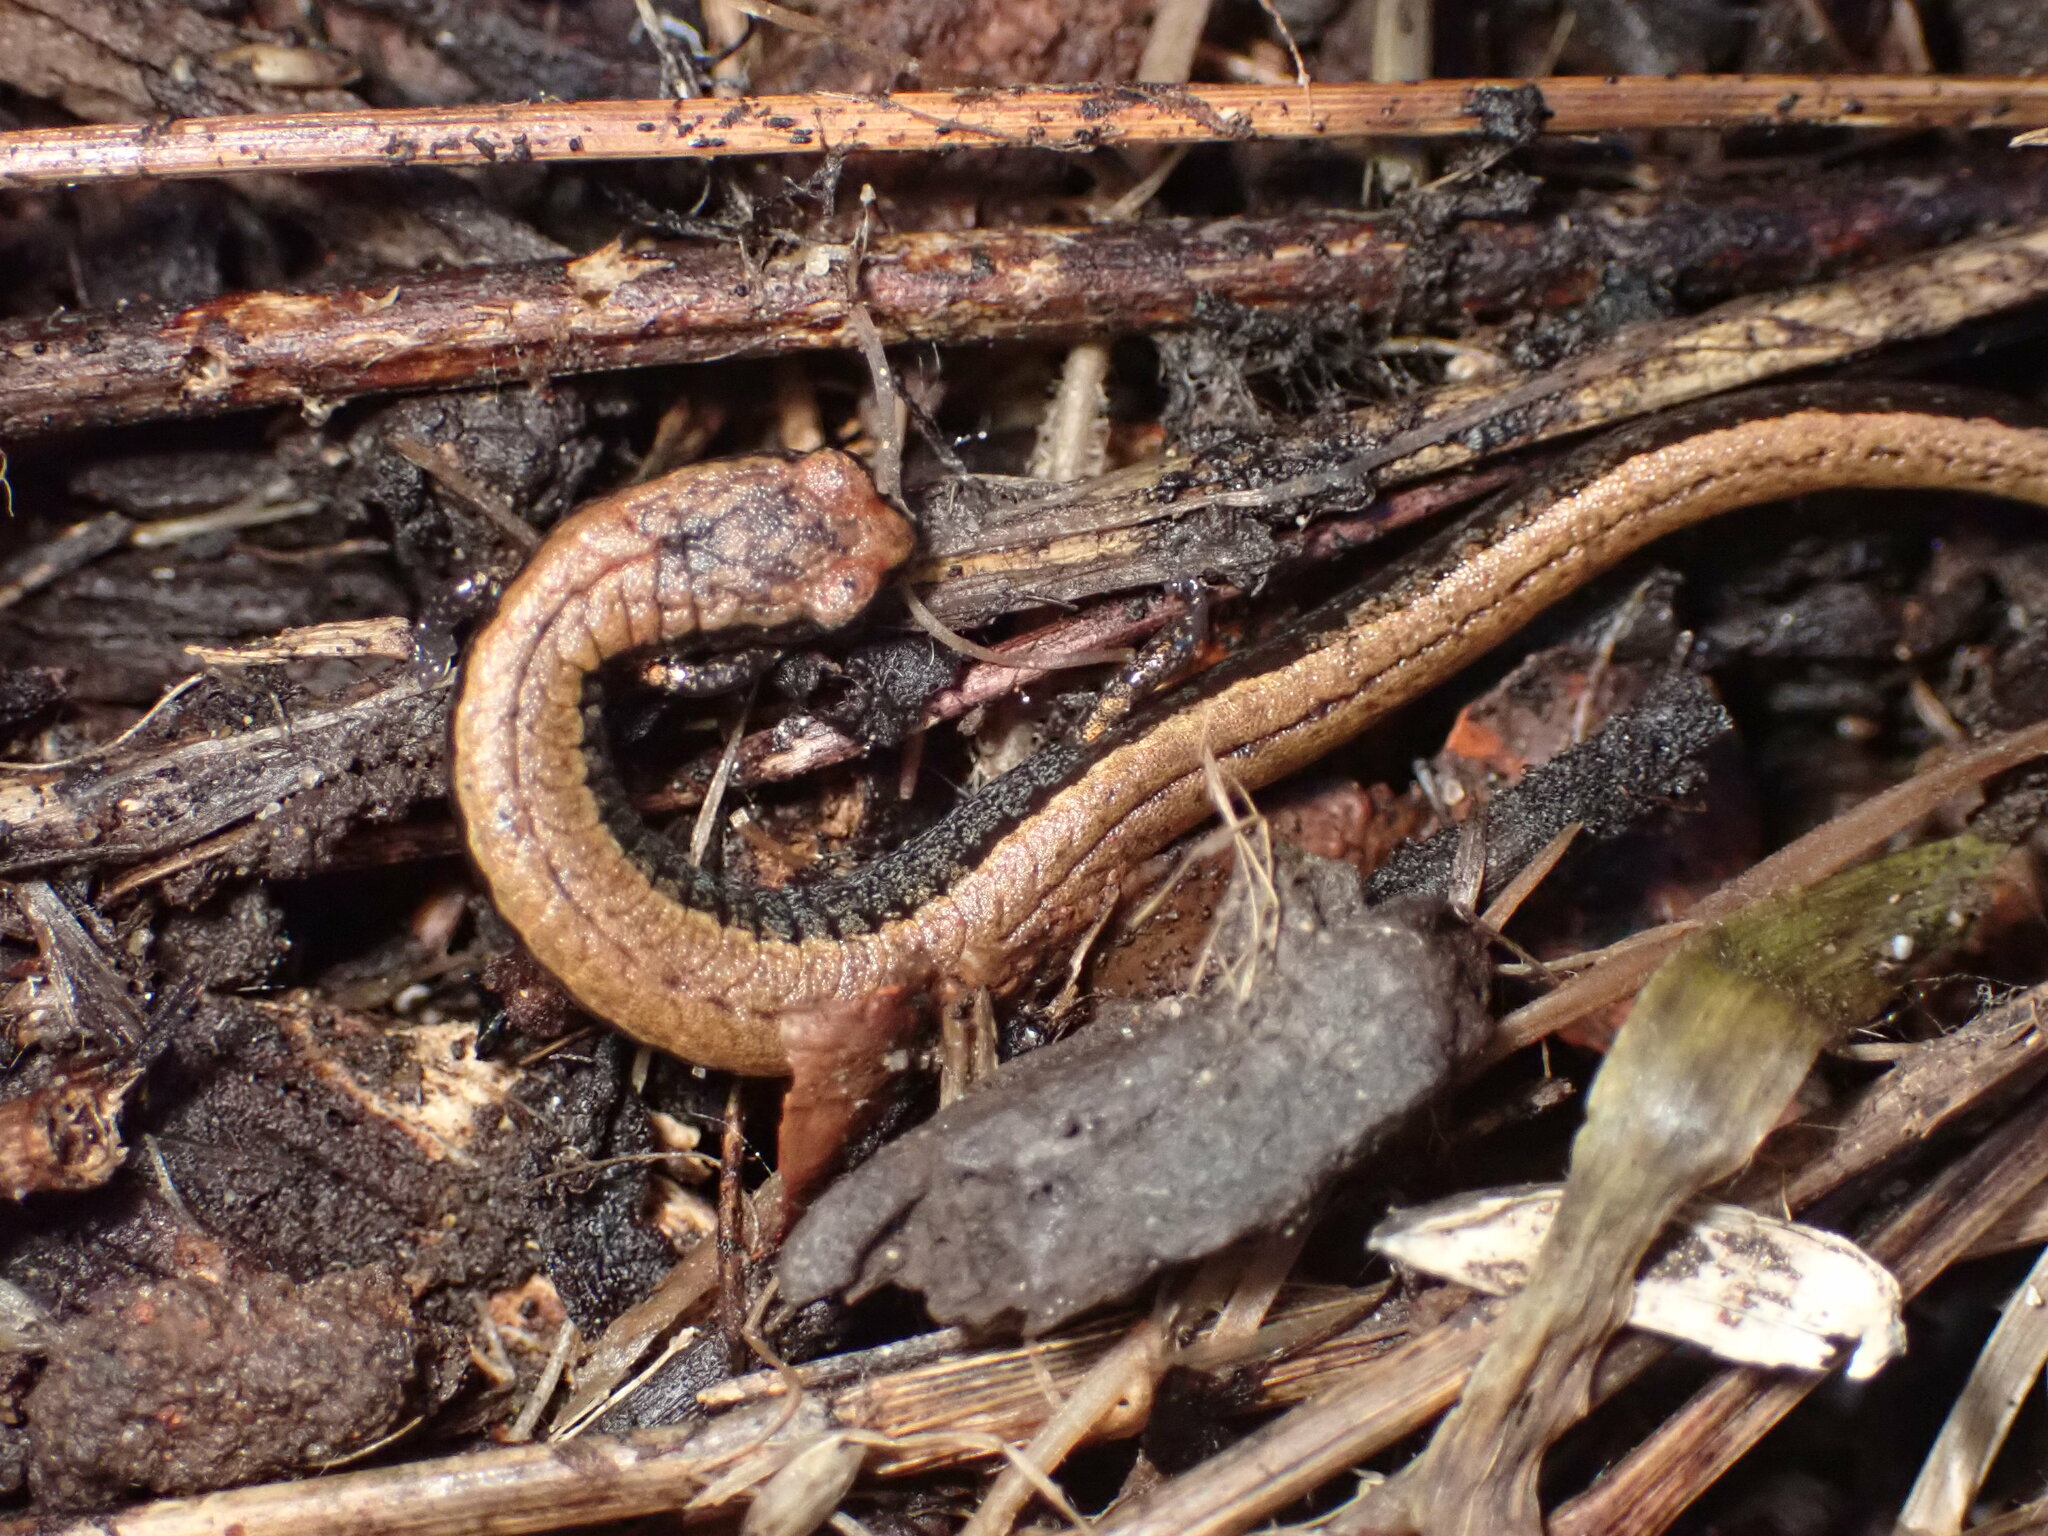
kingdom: Animalia
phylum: Chordata
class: Amphibia
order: Caudata
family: Plethodontidae
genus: Batrachoseps
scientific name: Batrachoseps attenuatus
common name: California slender salamander
